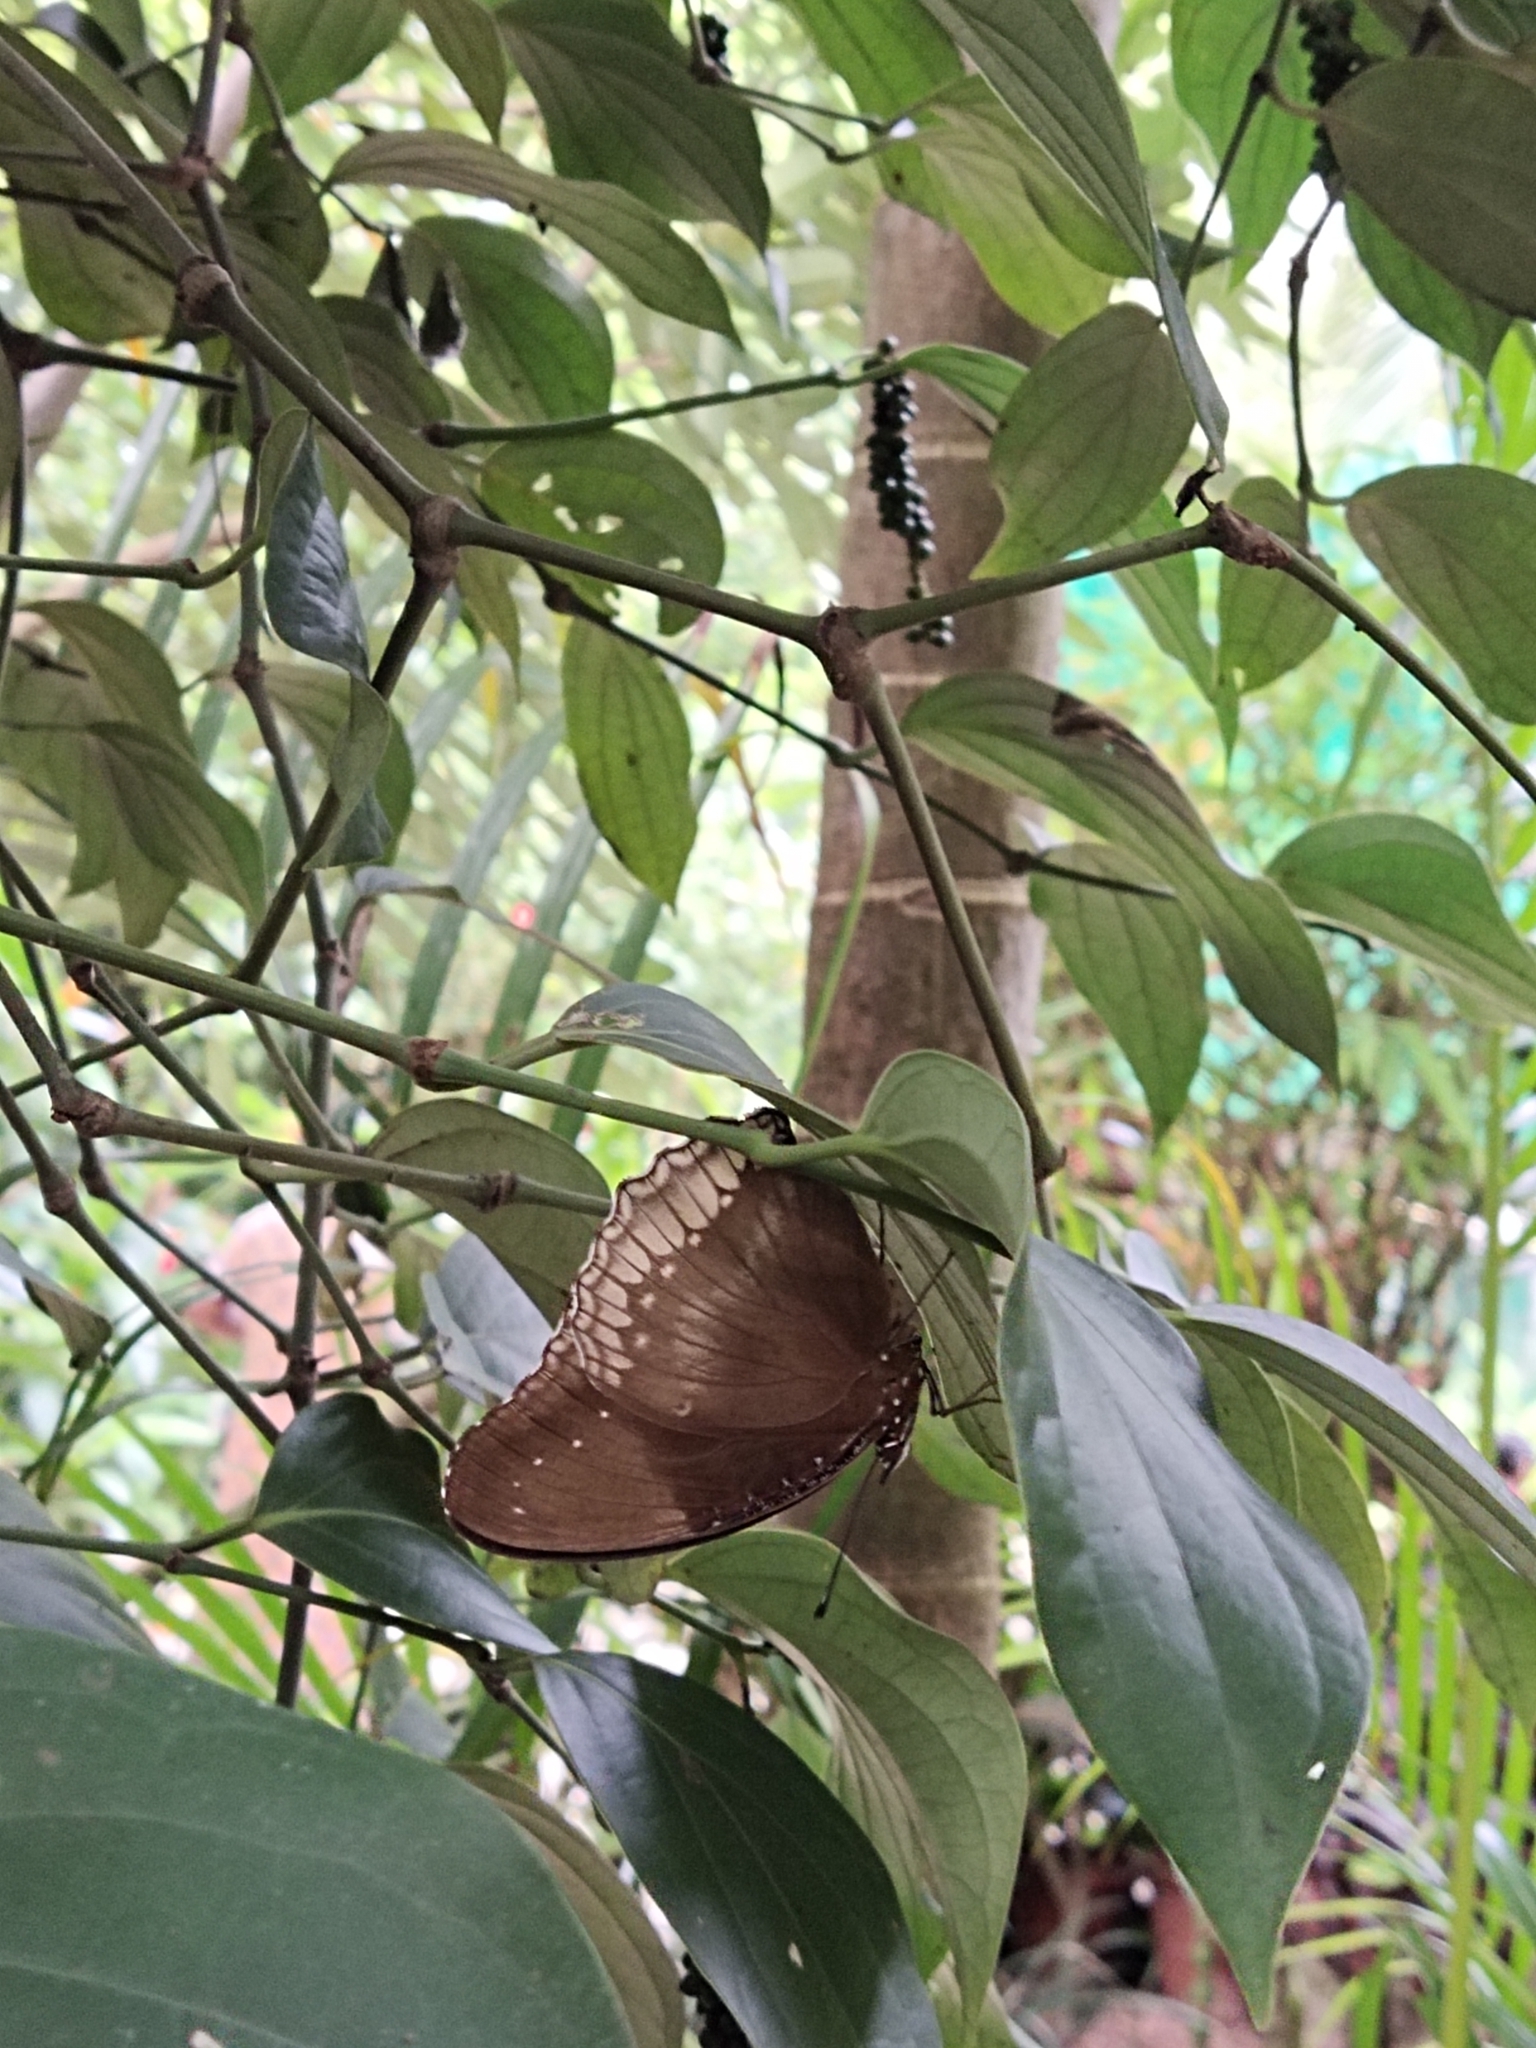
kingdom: Animalia
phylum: Arthropoda
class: Insecta
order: Lepidoptera
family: Nymphalidae
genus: Hypolimnas
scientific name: Hypolimnas bolina
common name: Great eggfly
